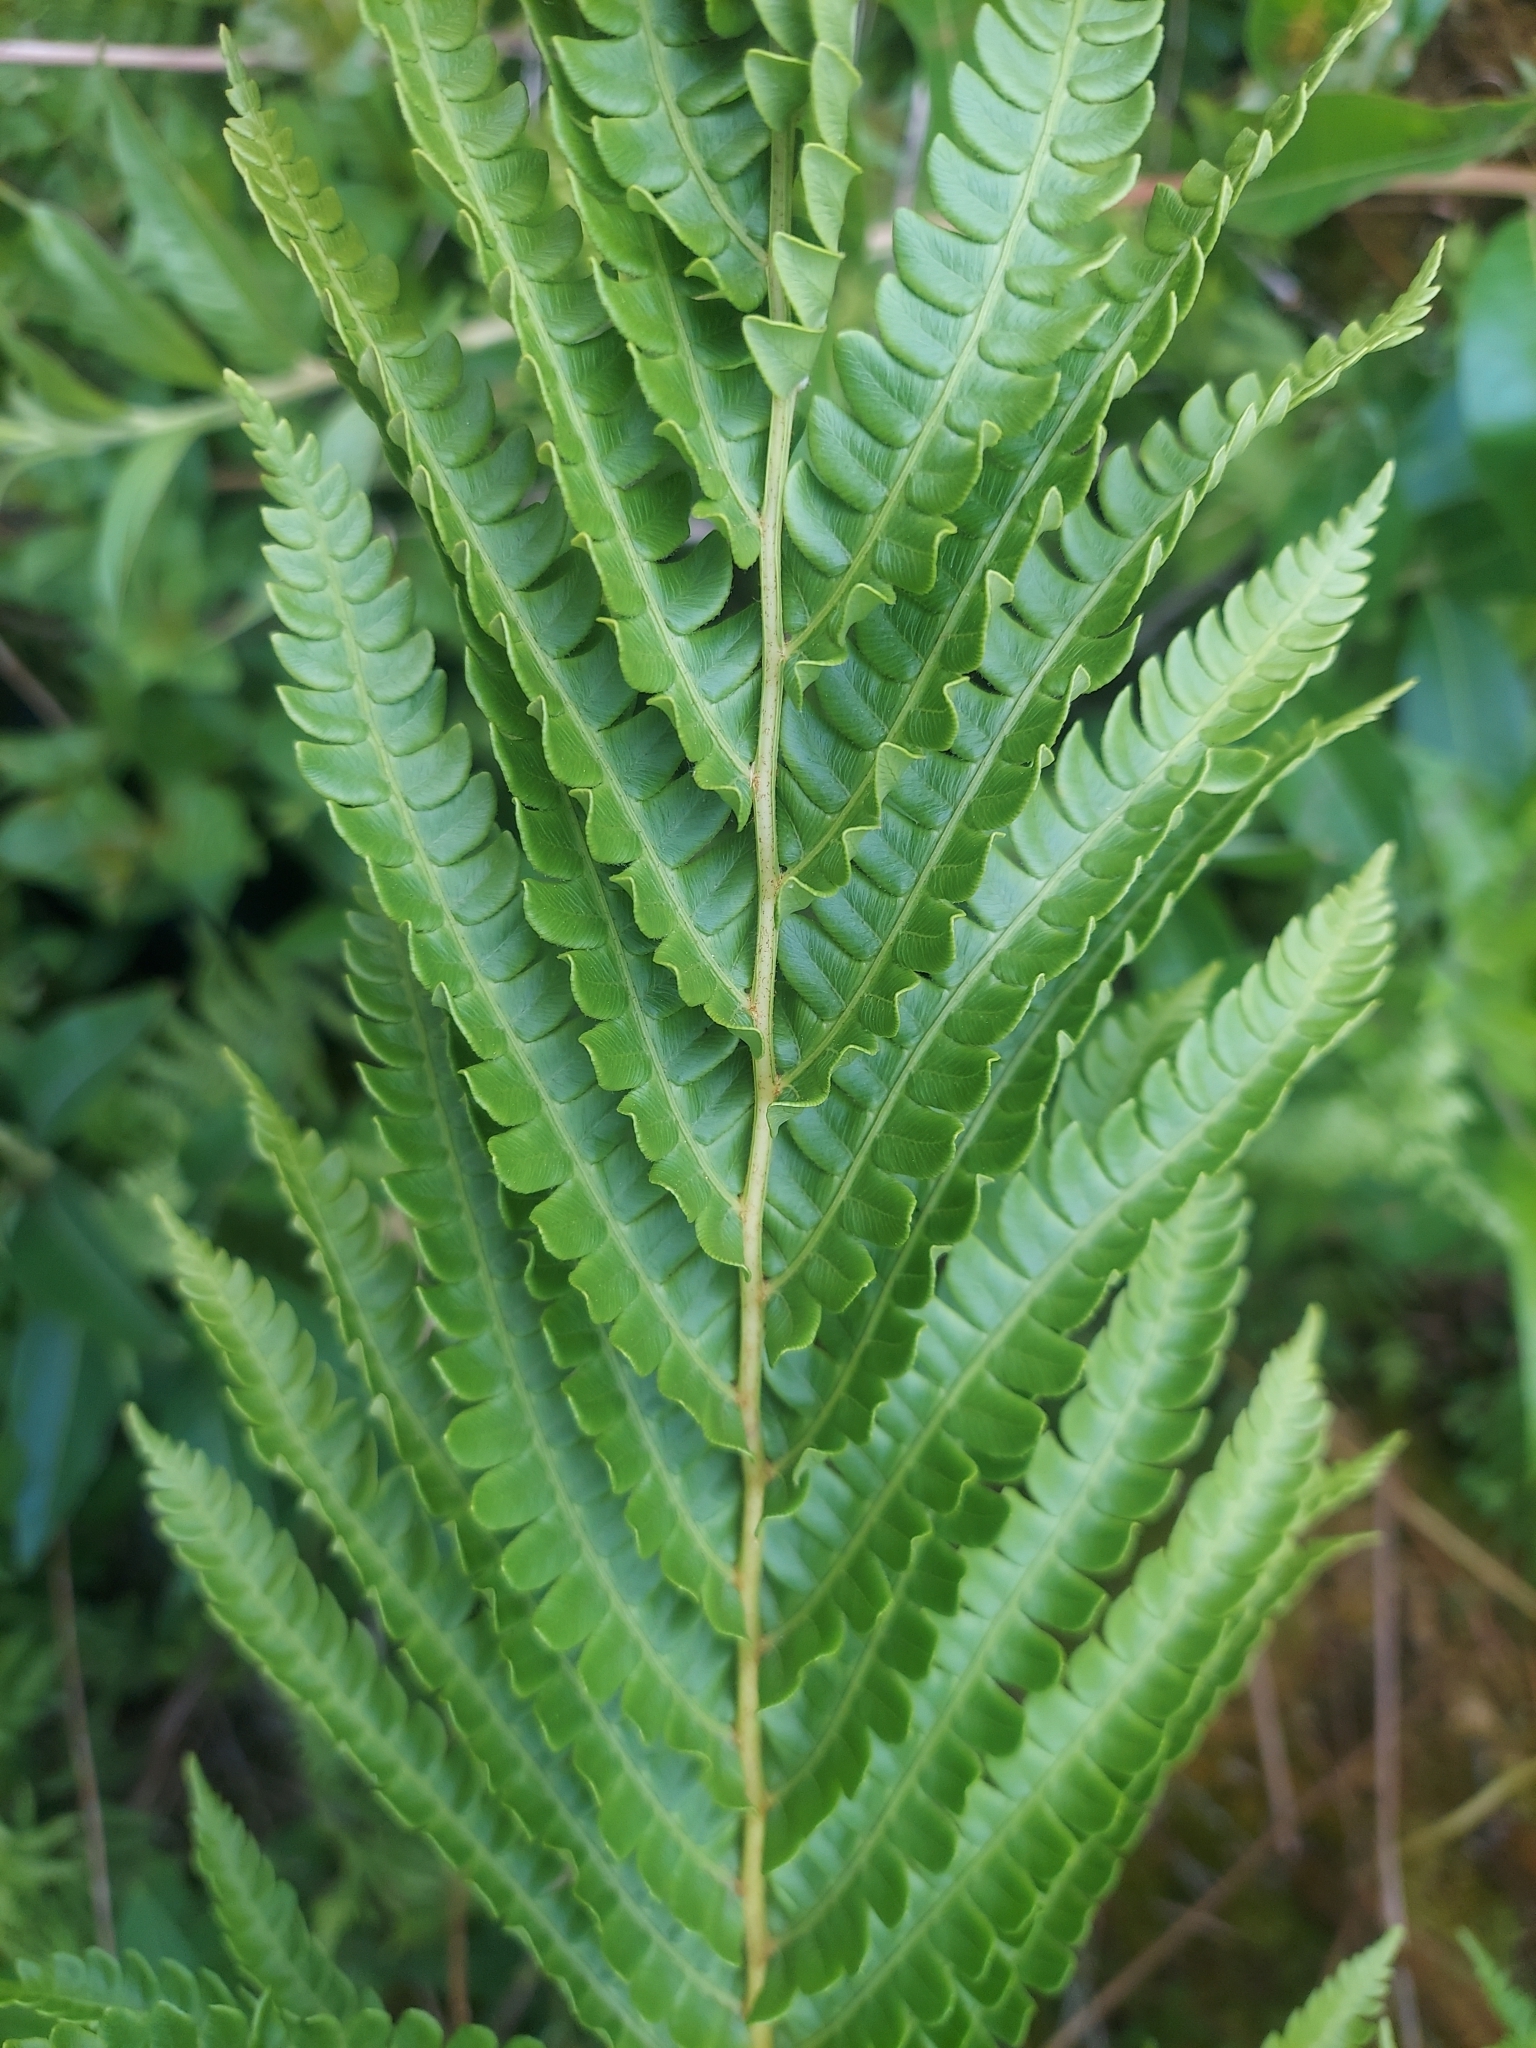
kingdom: Plantae
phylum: Tracheophyta
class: Polypodiopsida
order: Osmundales
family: Osmundaceae
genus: Osmundastrum
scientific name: Osmundastrum cinnamomeum
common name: Cinnamon fern
